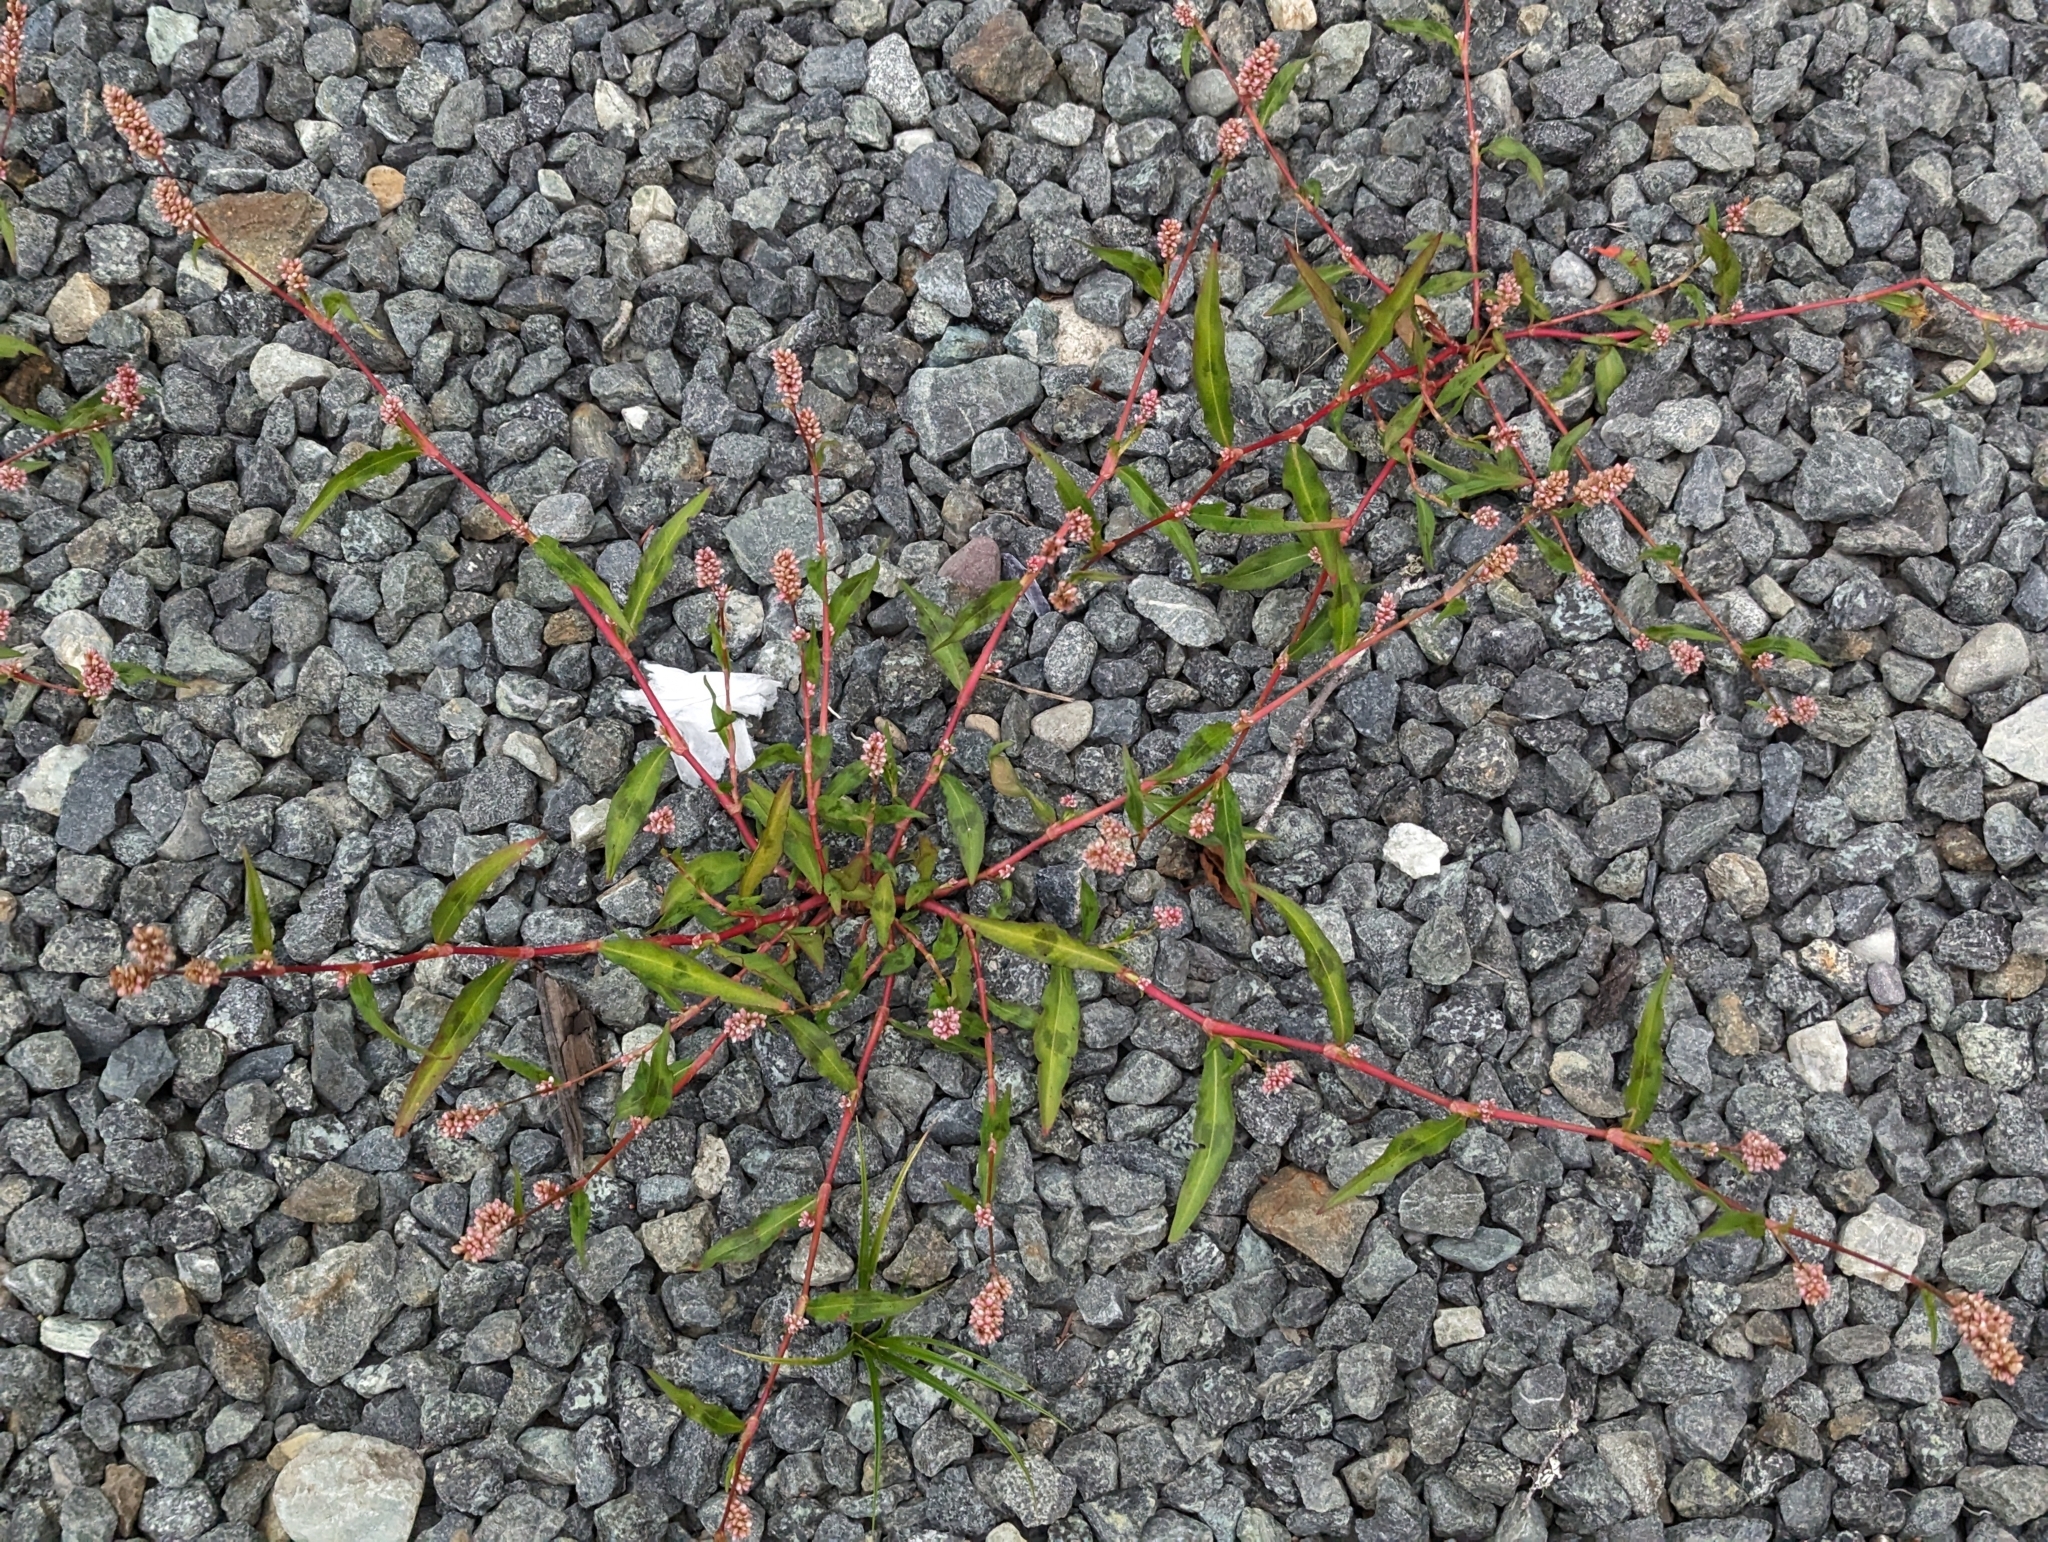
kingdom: Plantae
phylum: Tracheophyta
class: Magnoliopsida
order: Caryophyllales
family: Polygonaceae
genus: Persicaria
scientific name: Persicaria maculosa
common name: Redshank
